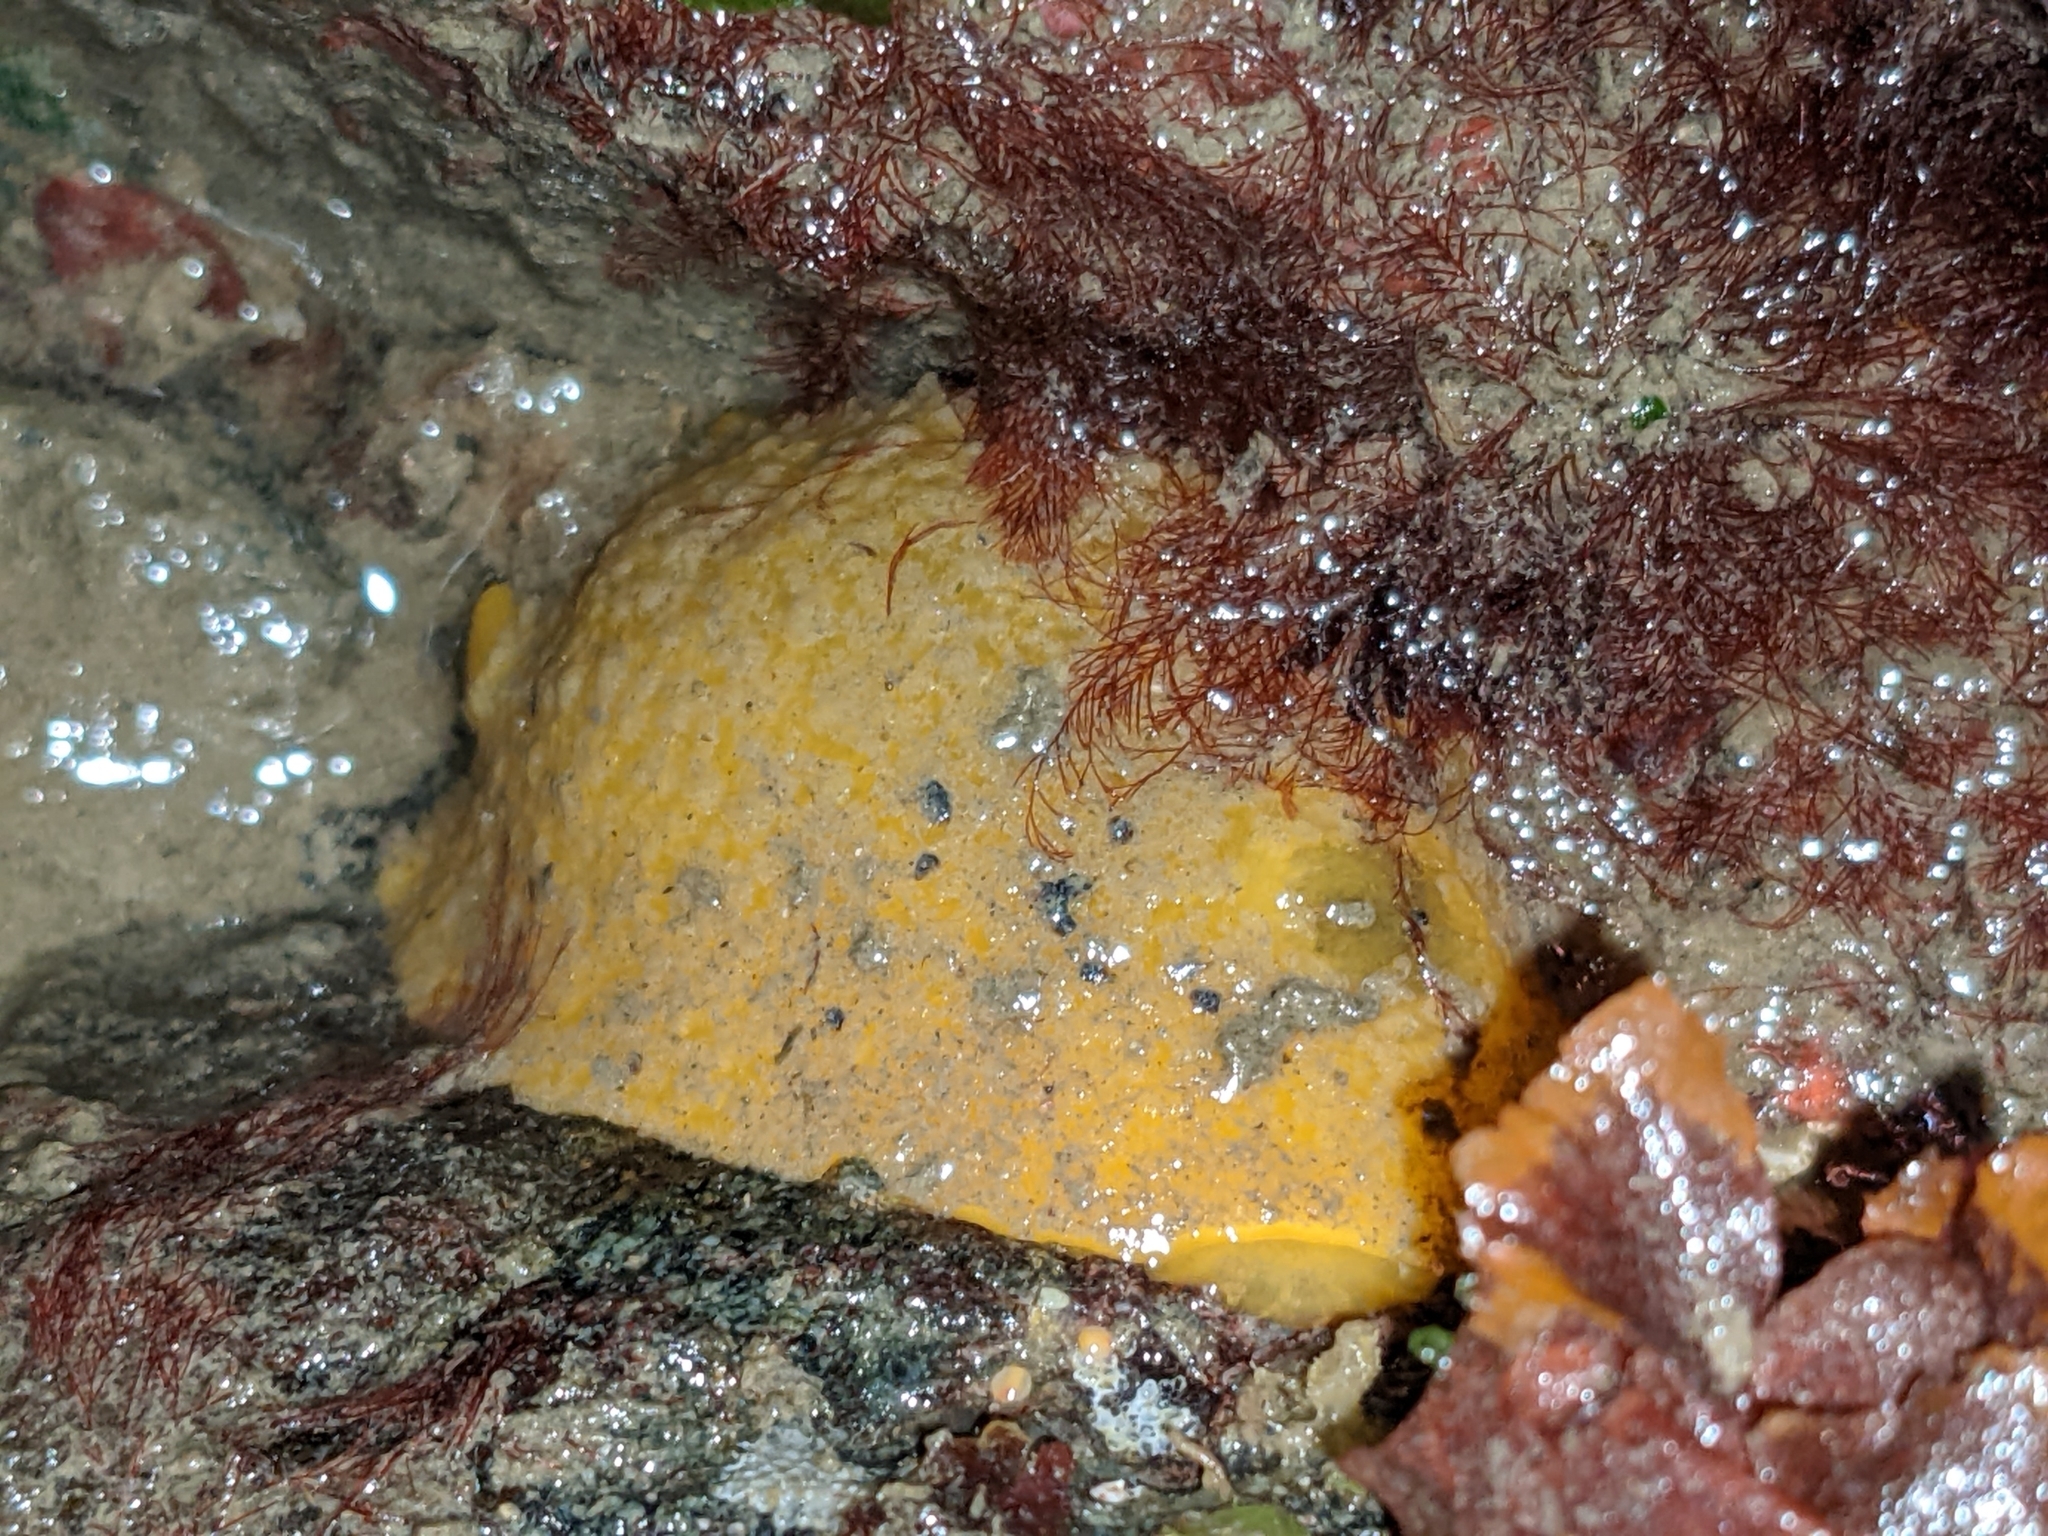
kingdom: Animalia
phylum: Mollusca
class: Gastropoda
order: Nudibranchia
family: Dorididae
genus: Doris
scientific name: Doris montereyensis
